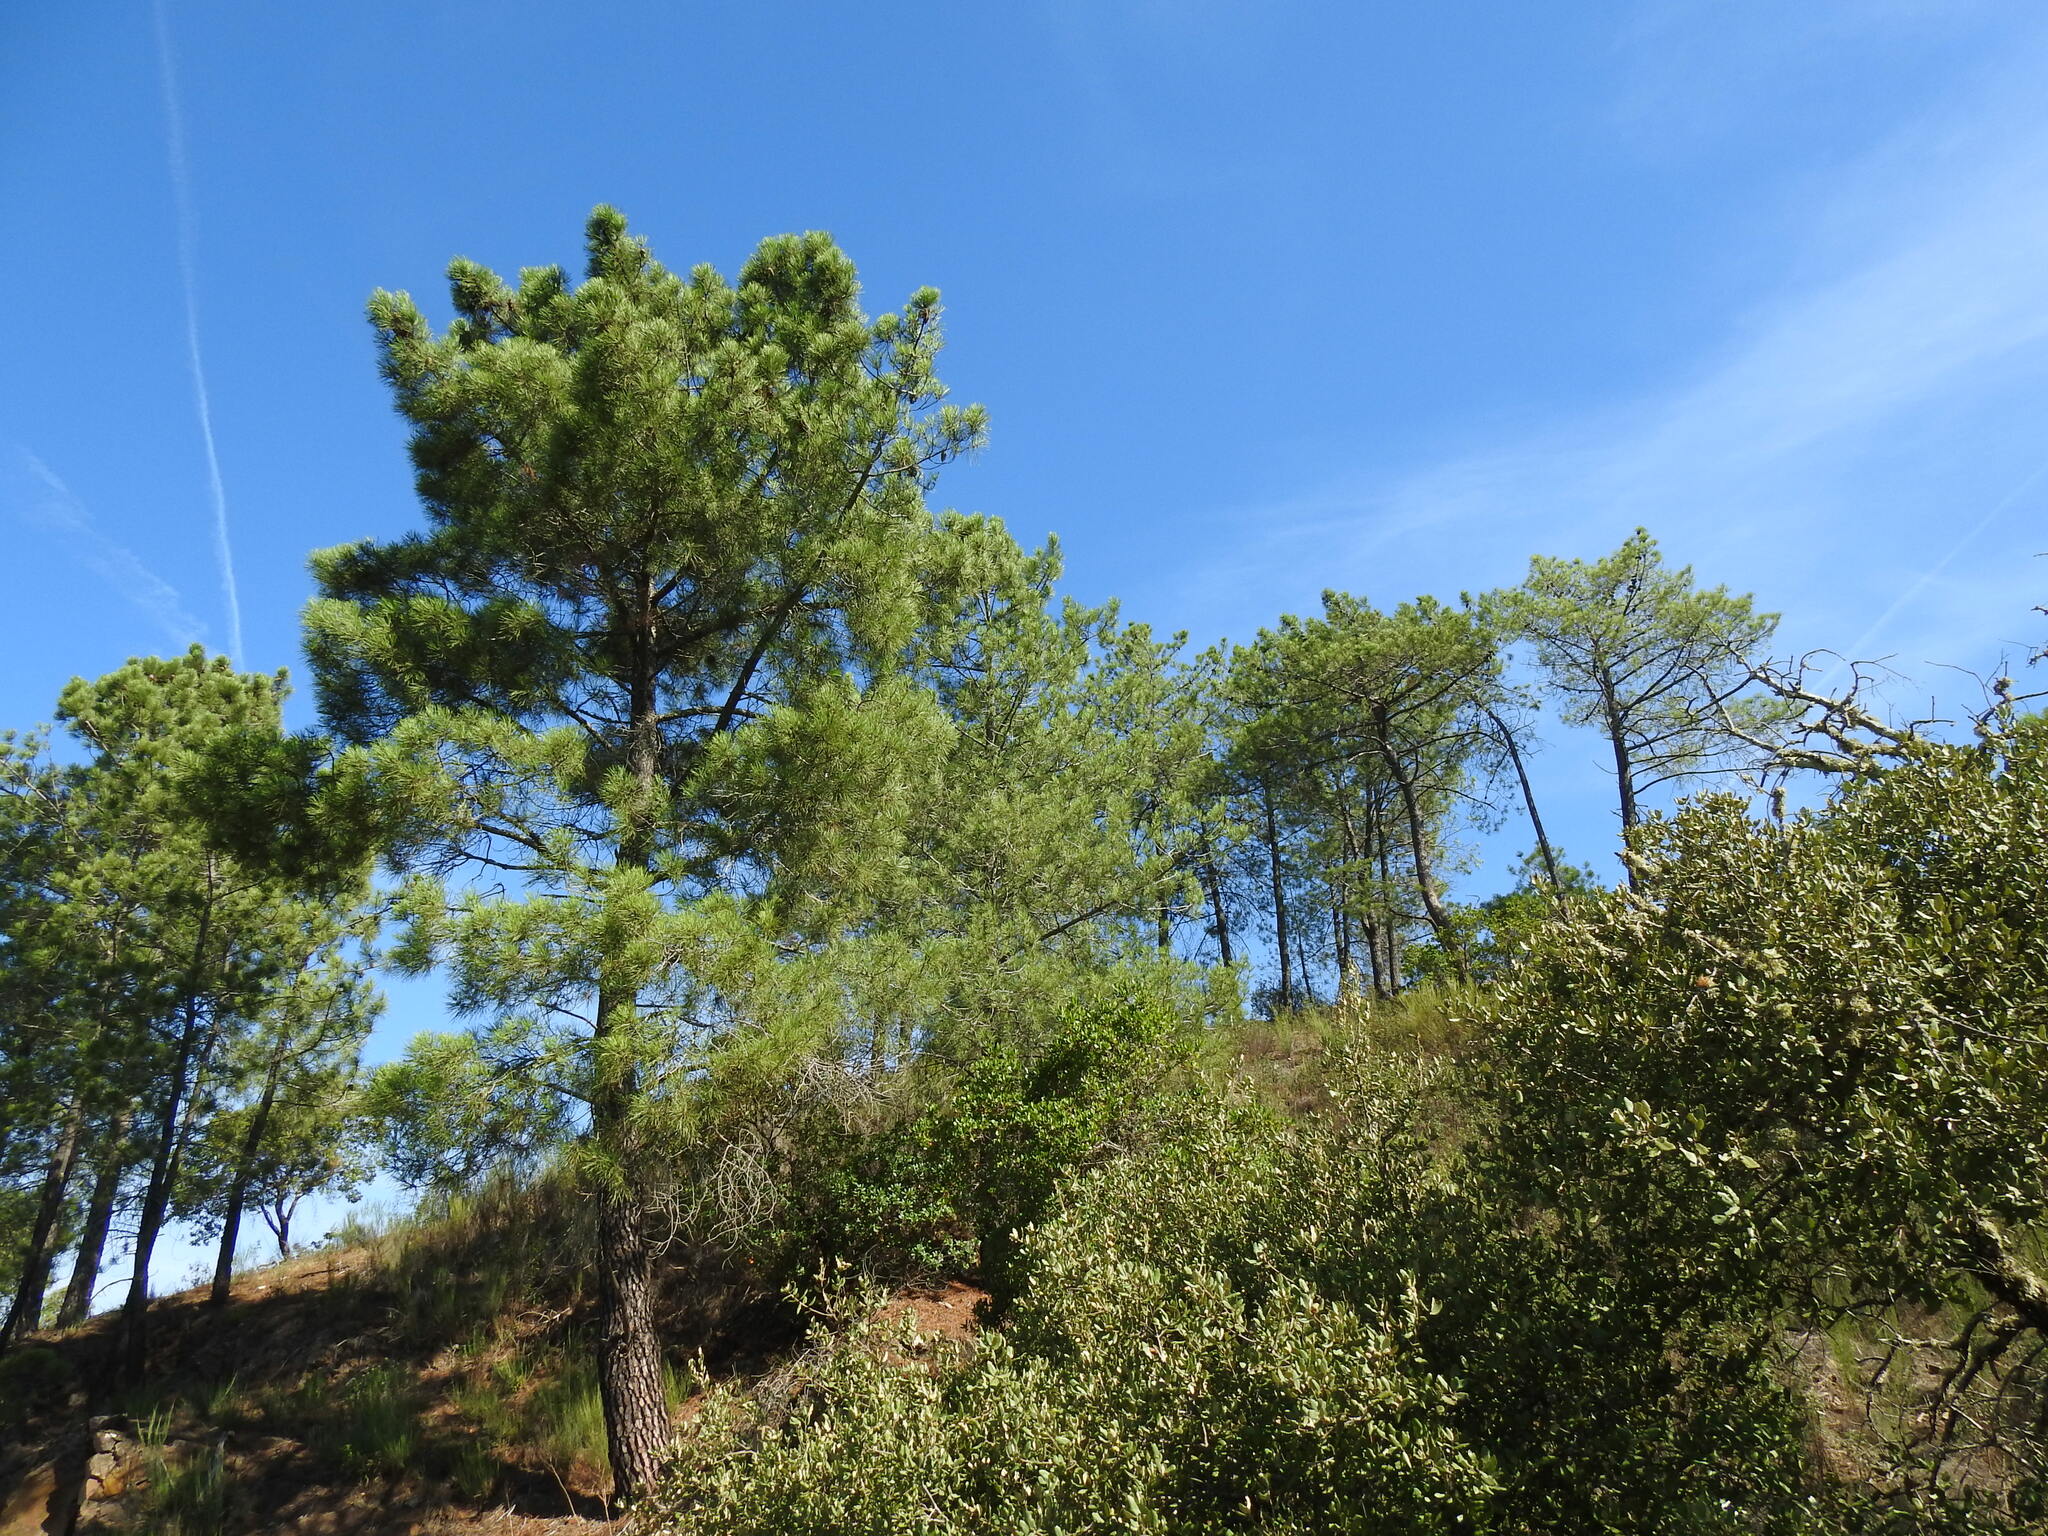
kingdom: Plantae
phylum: Tracheophyta
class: Pinopsida
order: Pinales
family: Pinaceae
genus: Pinus
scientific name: Pinus pinaster
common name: Maritime pine
